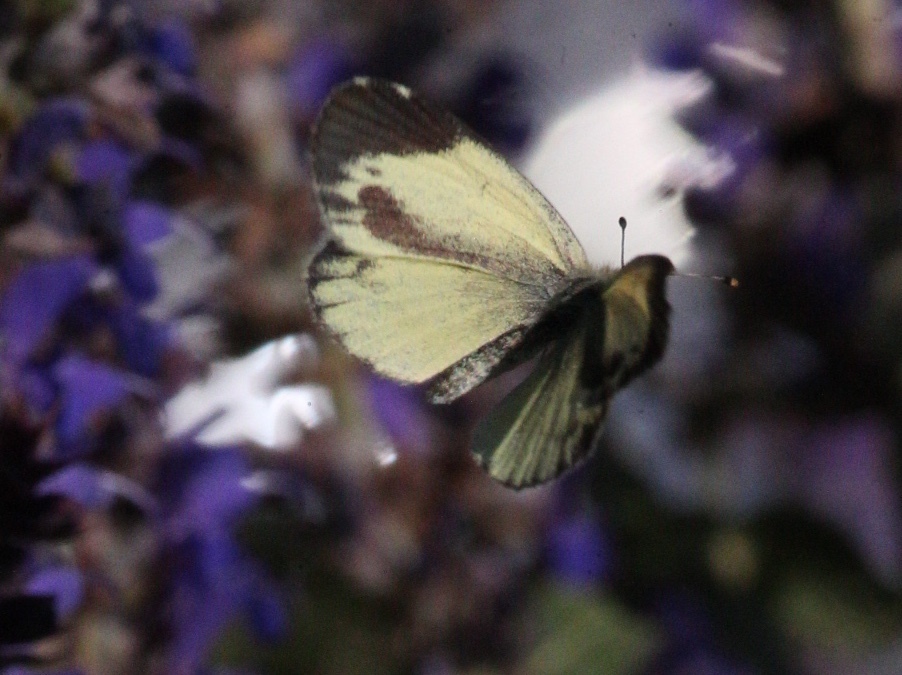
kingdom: Animalia
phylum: Arthropoda
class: Insecta
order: Lepidoptera
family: Pieridae
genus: Nathalis
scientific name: Nathalis iole
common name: Dainty sulphur
